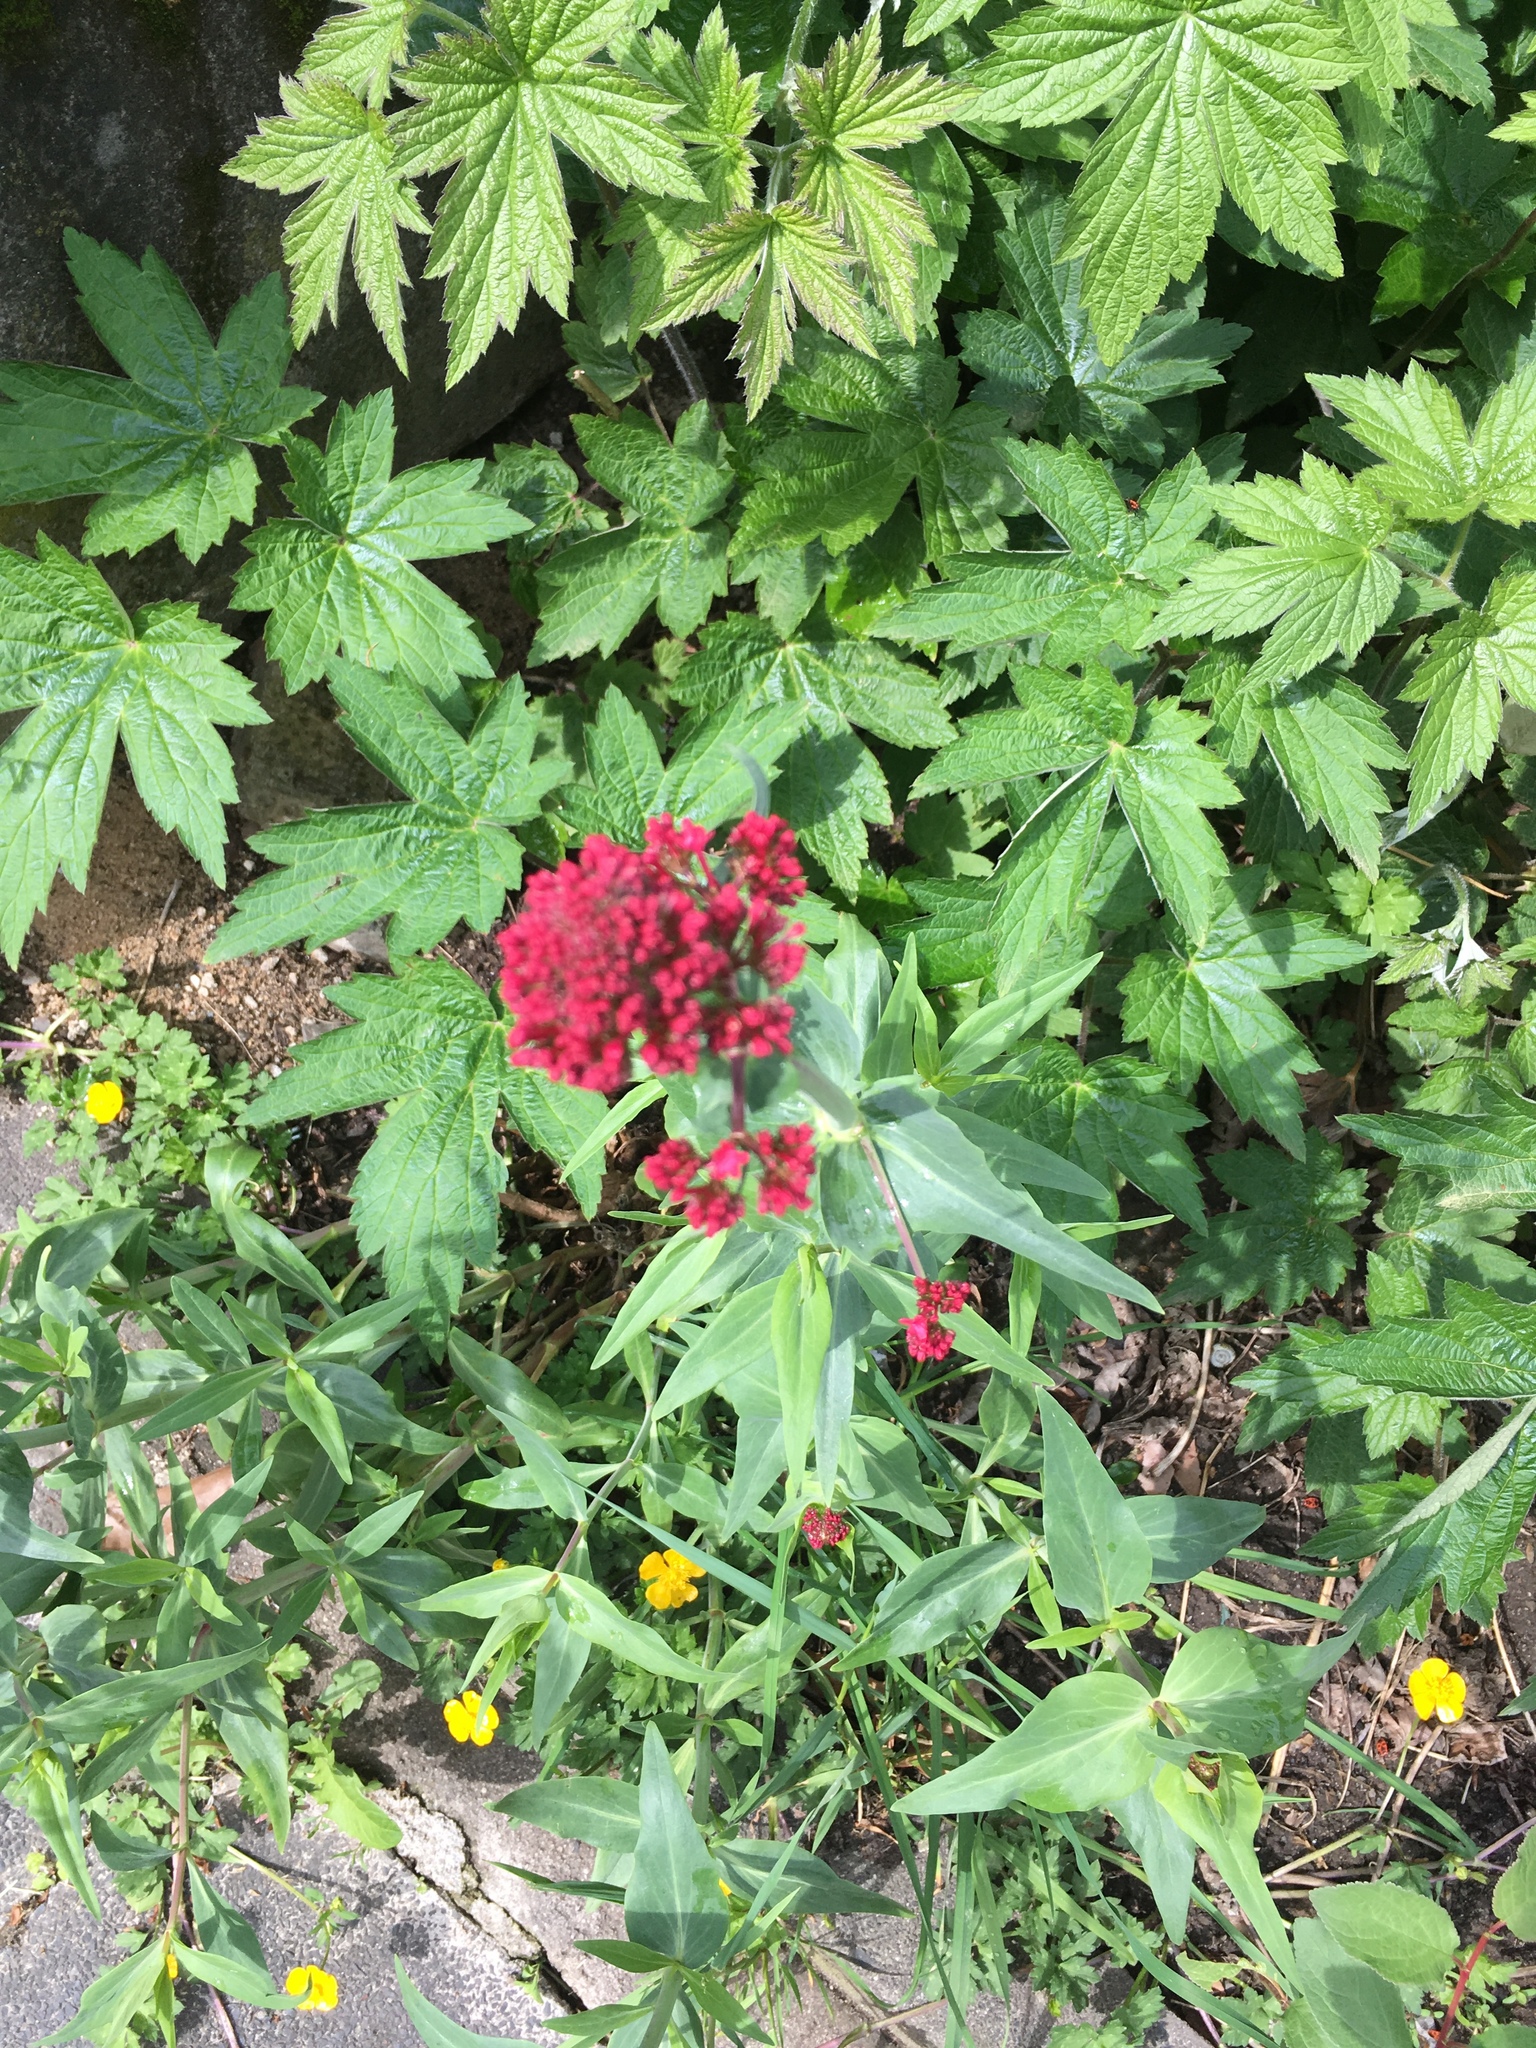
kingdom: Plantae
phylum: Tracheophyta
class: Magnoliopsida
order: Dipsacales
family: Caprifoliaceae
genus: Centranthus
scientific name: Centranthus ruber
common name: Red valerian
